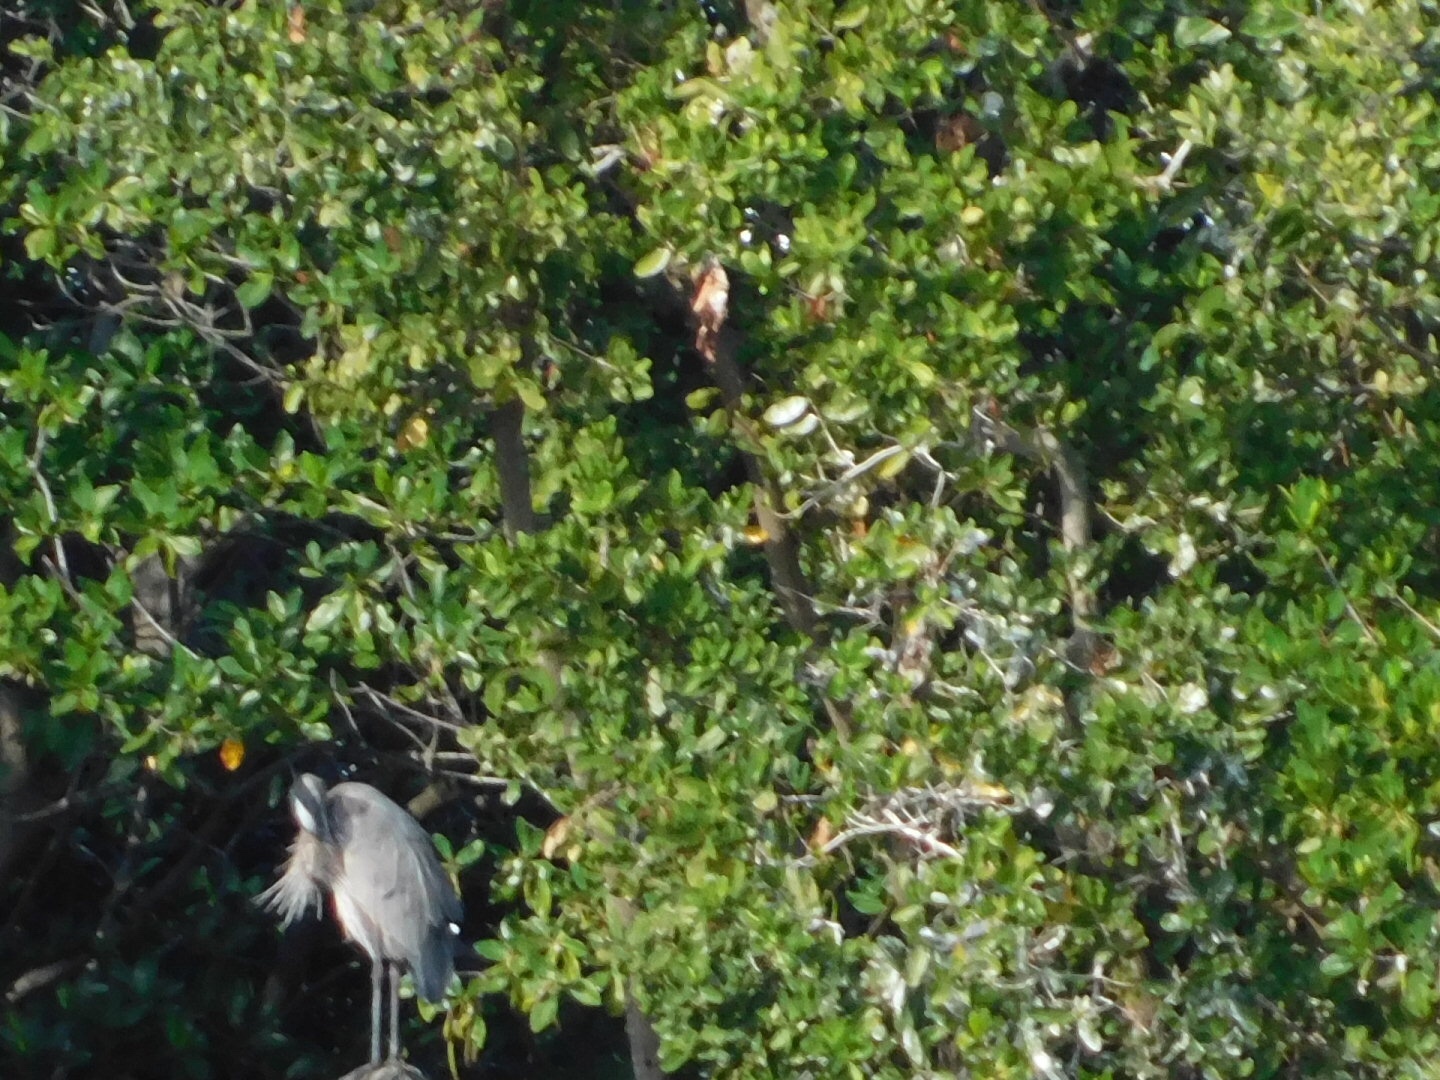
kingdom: Animalia
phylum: Chordata
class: Aves
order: Pelecaniformes
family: Ardeidae
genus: Ardea
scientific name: Ardea herodias
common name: Great blue heron
